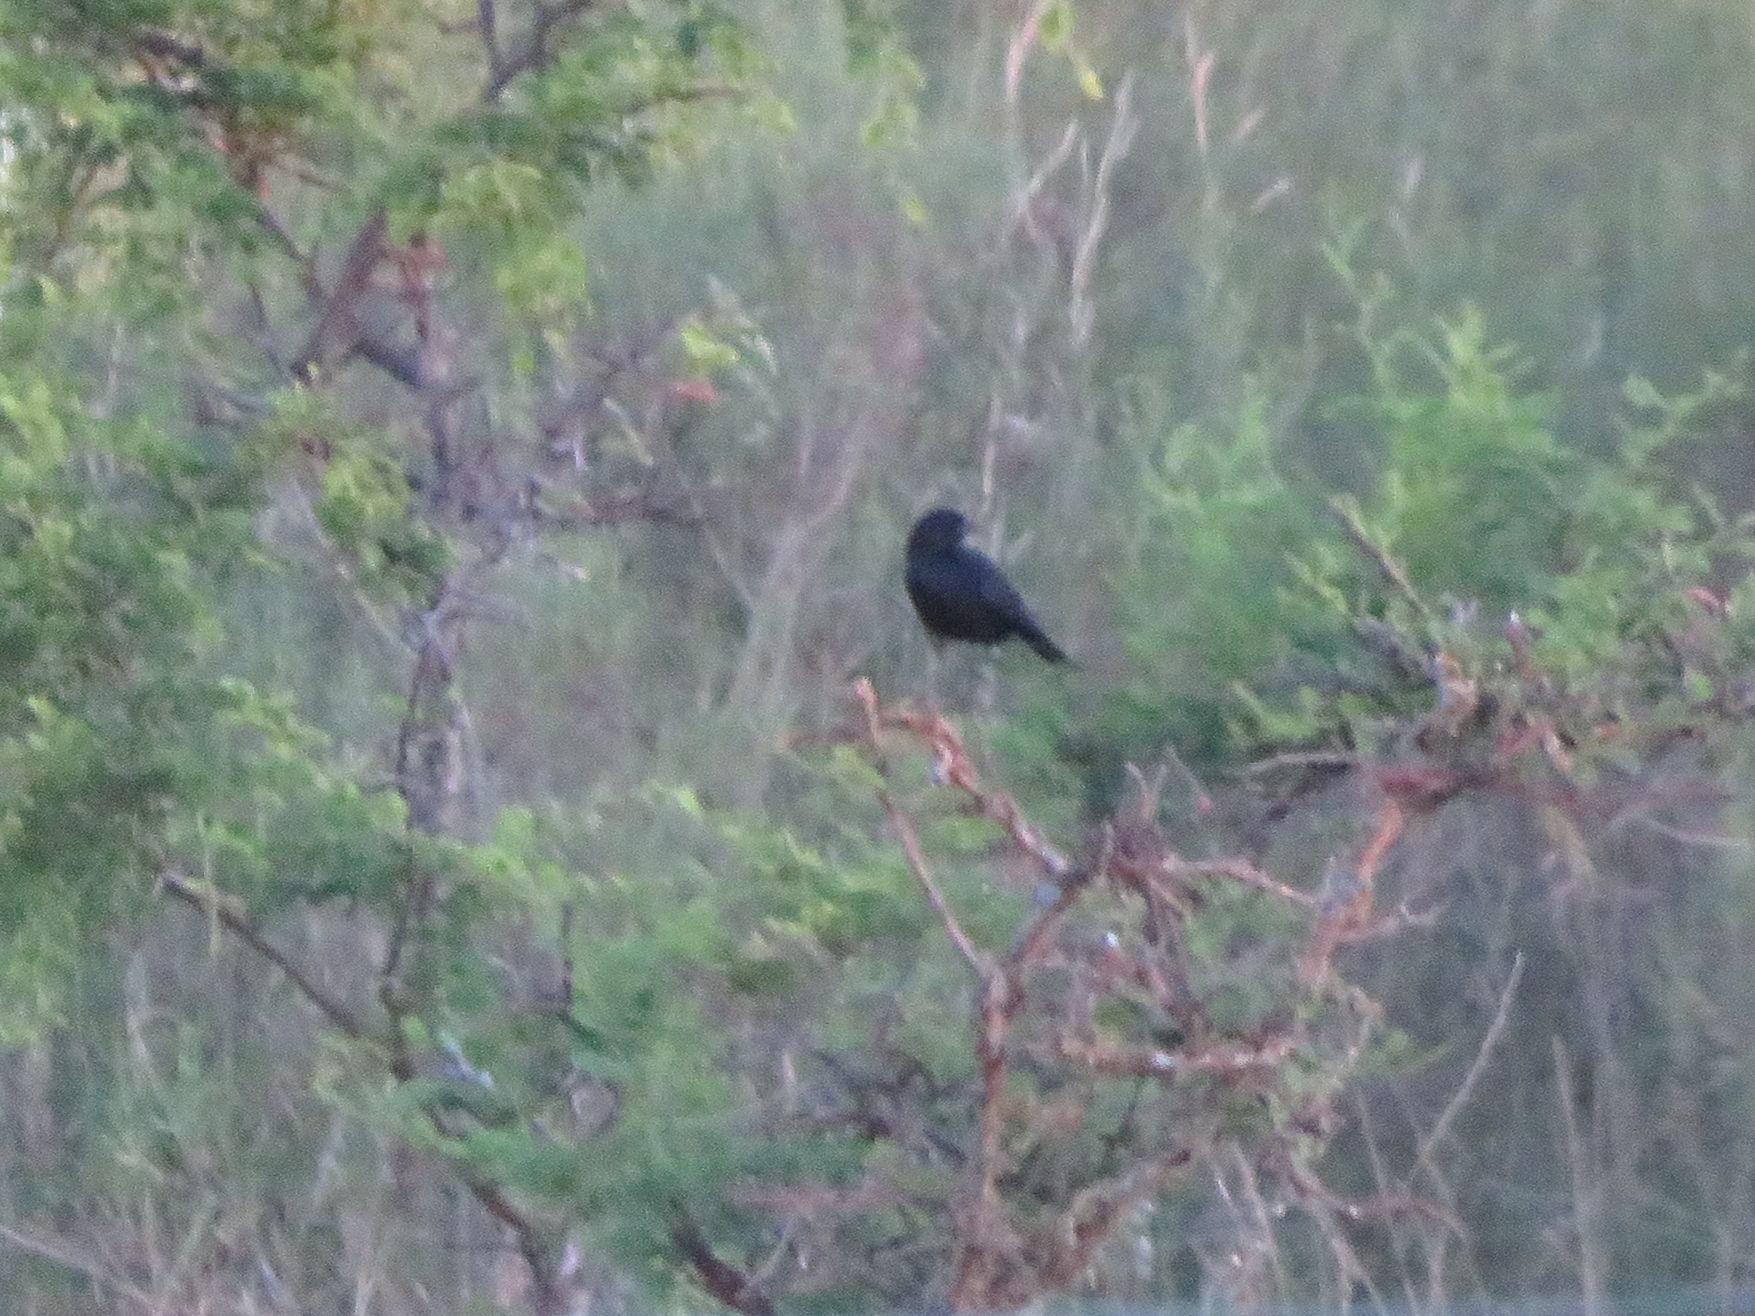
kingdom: Animalia
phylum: Chordata
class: Aves
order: Passeriformes
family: Icteridae
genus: Molothrus
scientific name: Molothrus bonariensis
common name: Shiny cowbird
